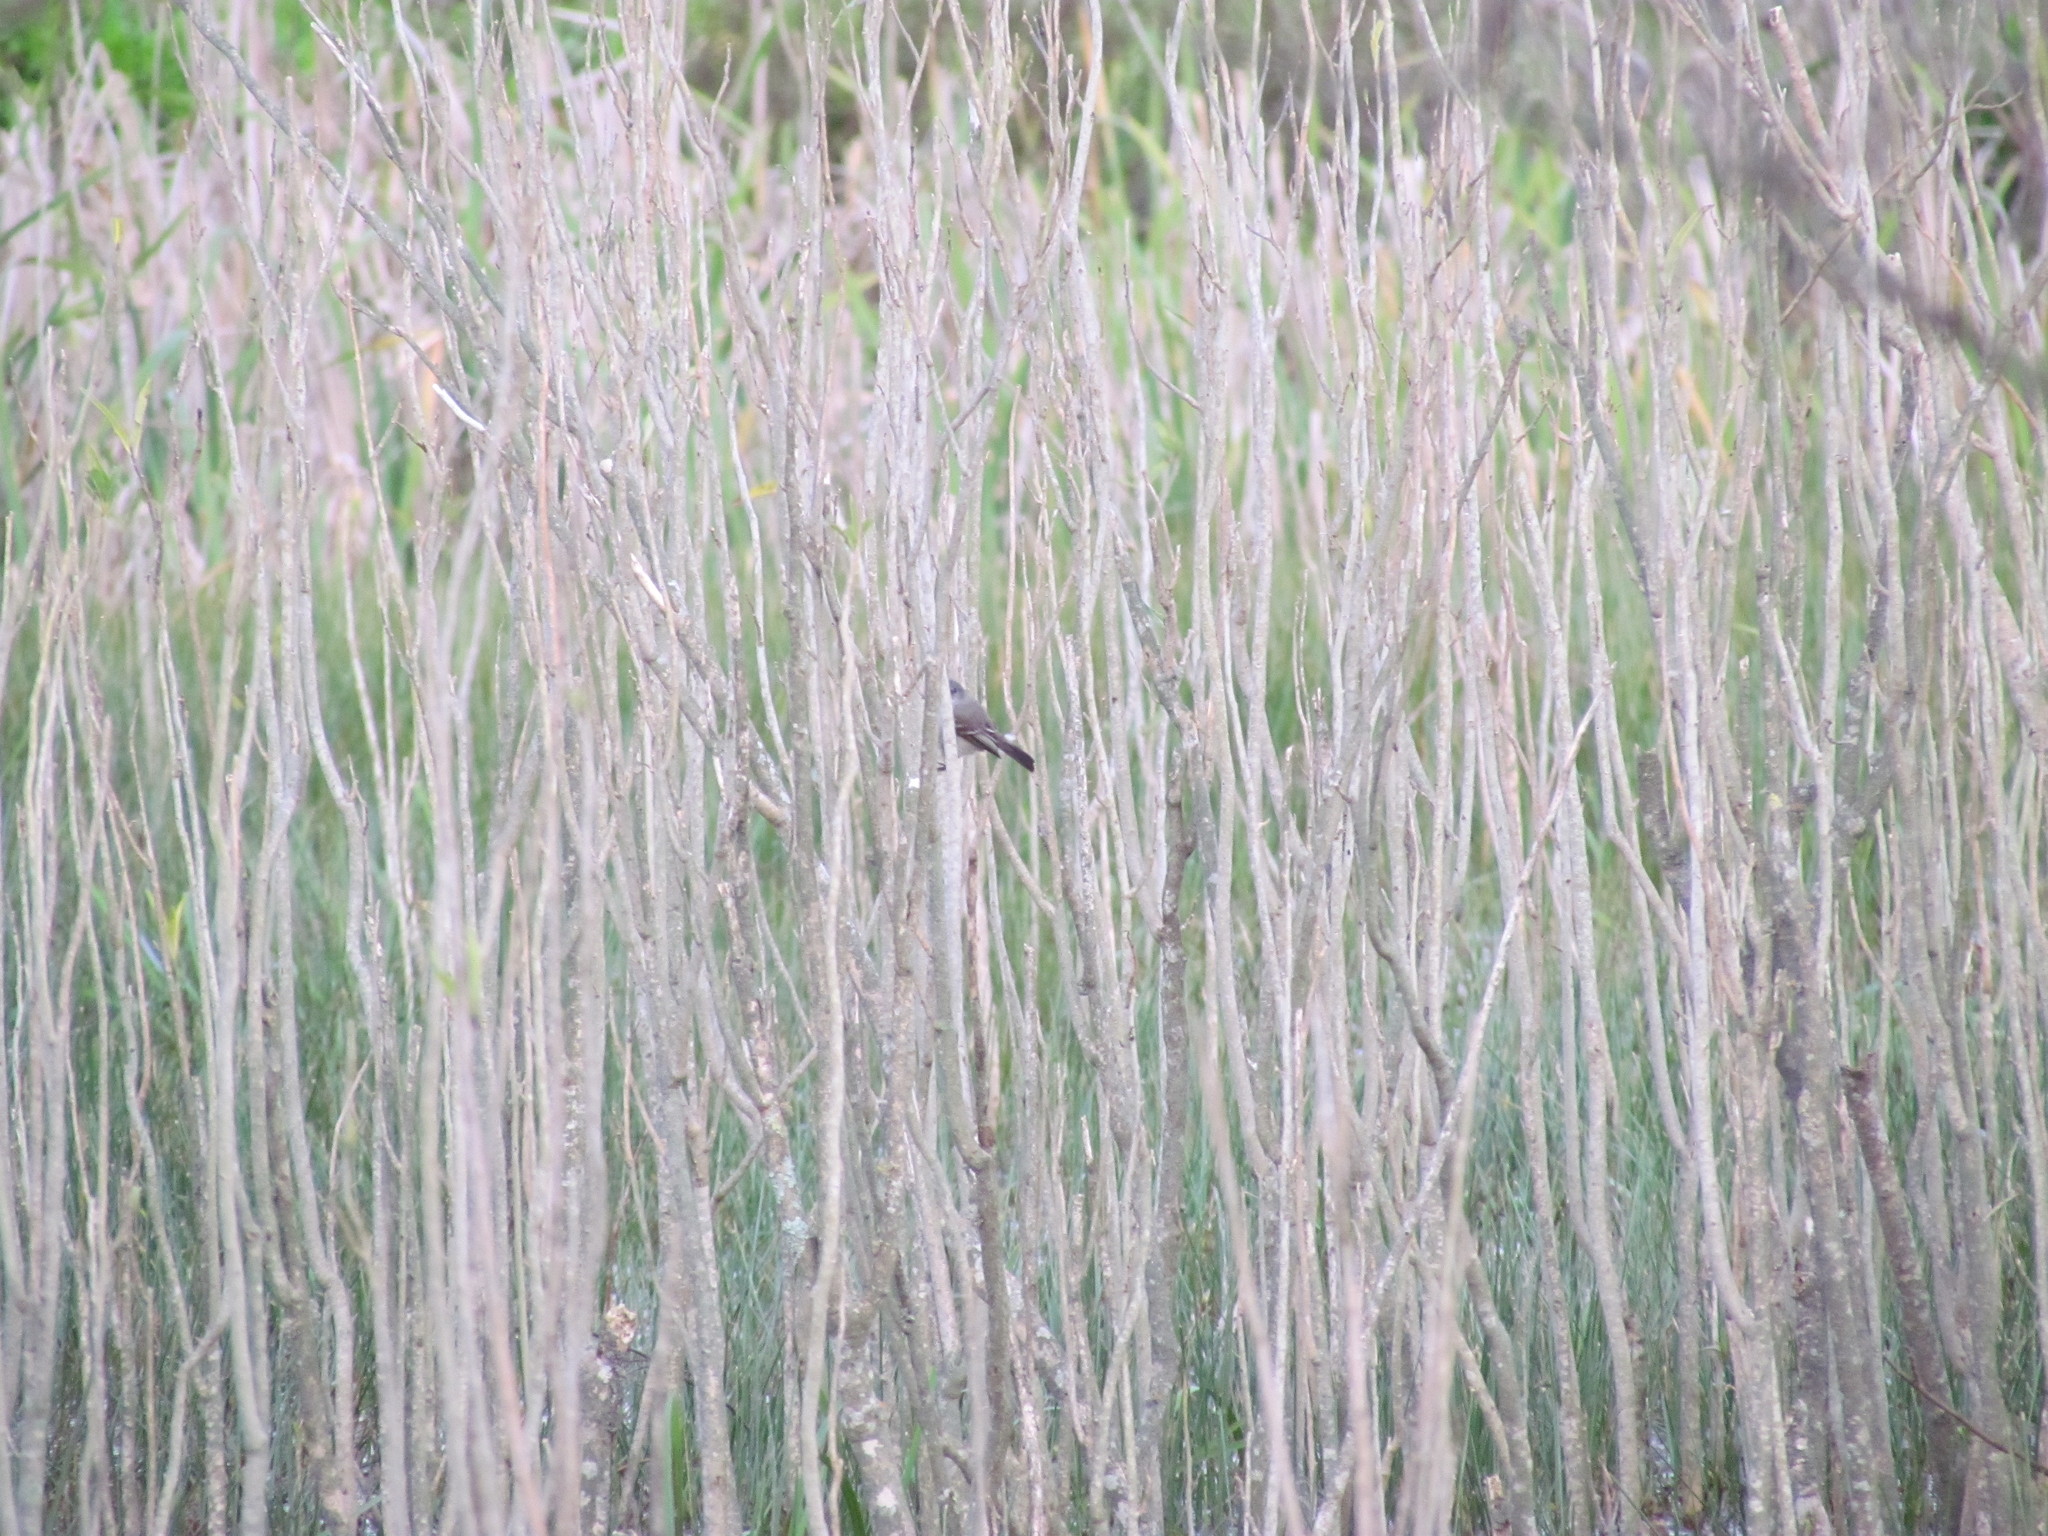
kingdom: Animalia
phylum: Chordata
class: Aves
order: Passeriformes
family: Tyrannidae
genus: Serpophaga
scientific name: Serpophaga nigricans
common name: Sooty tyrannulet
